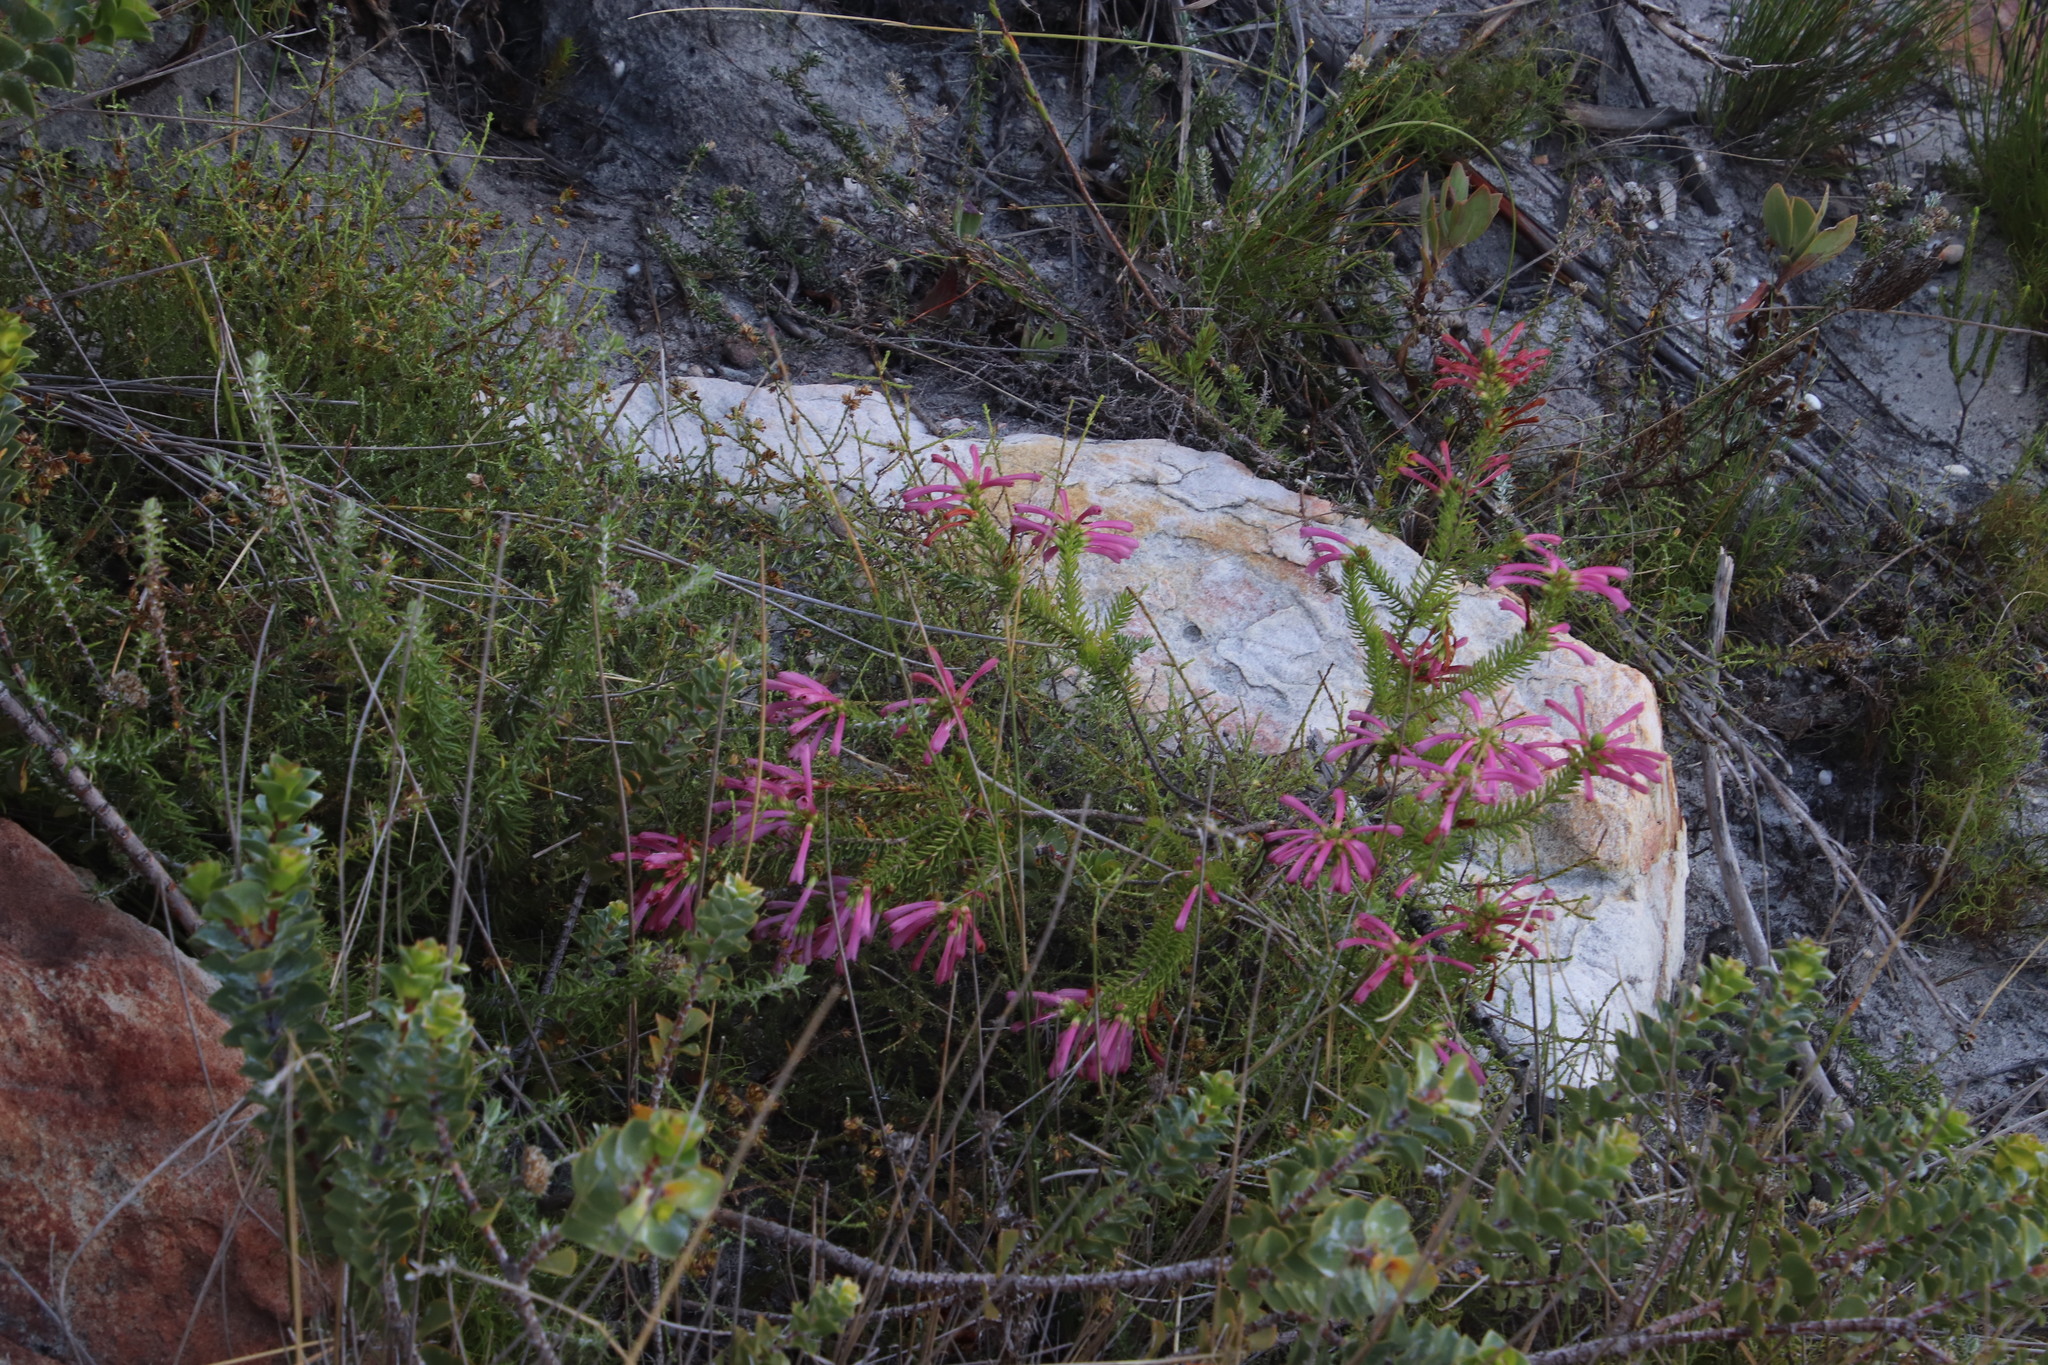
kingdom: Plantae
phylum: Tracheophyta
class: Magnoliopsida
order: Ericales
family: Ericaceae
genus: Erica
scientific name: Erica abietina
